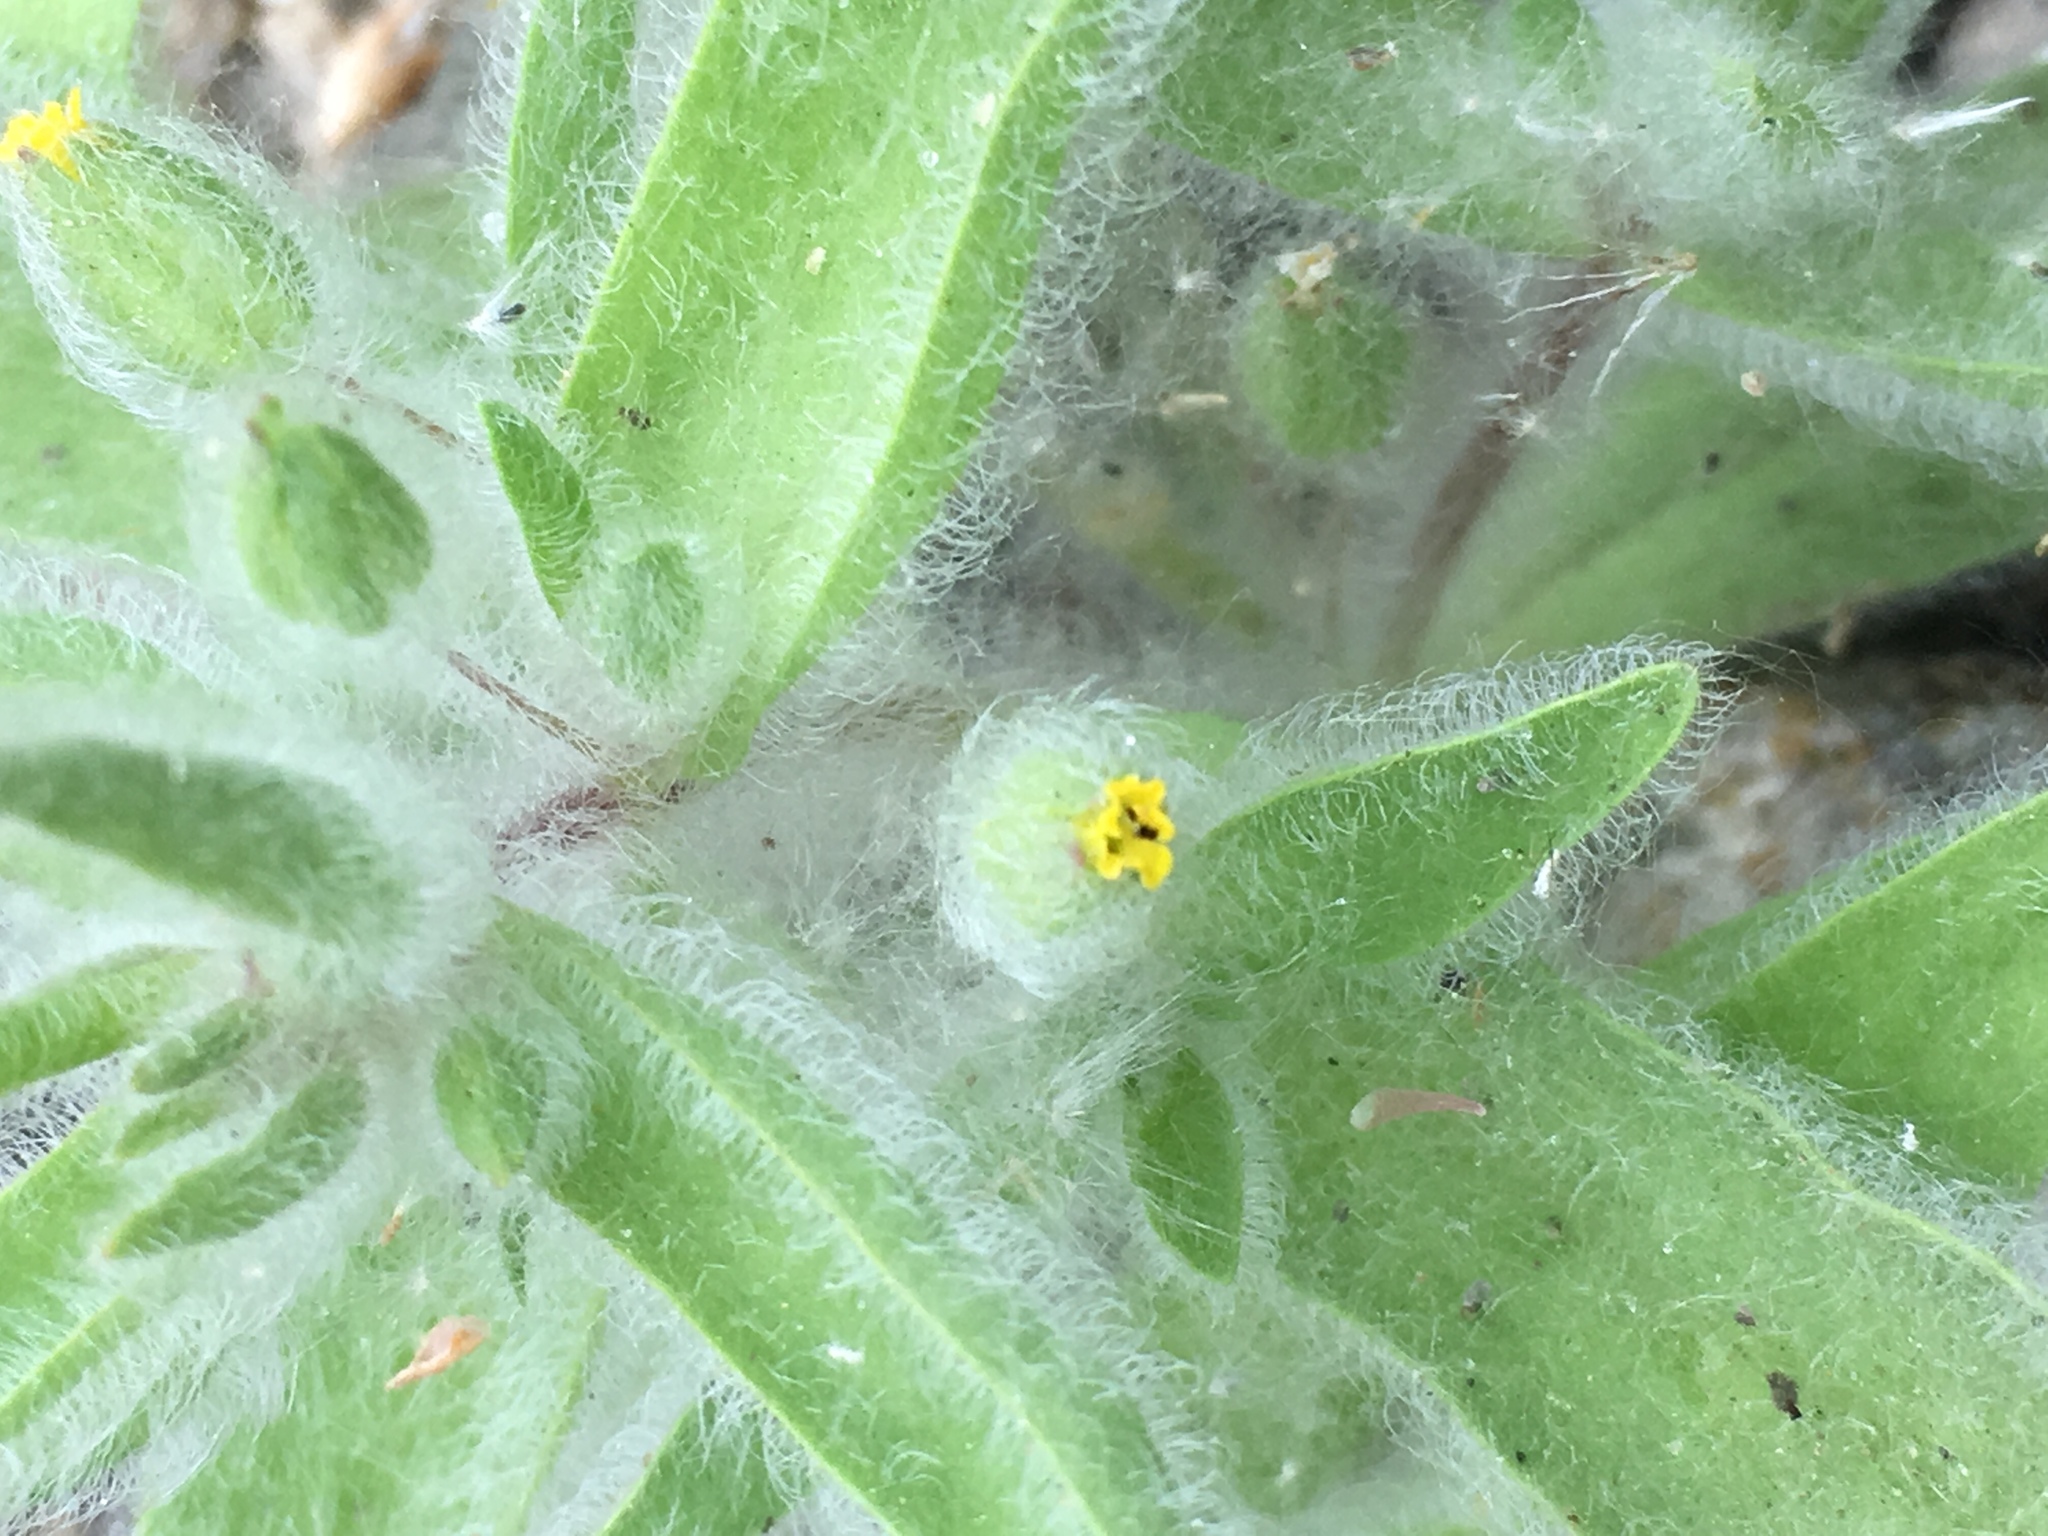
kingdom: Plantae
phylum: Tracheophyta
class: Magnoliopsida
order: Lamiales
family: Phrymaceae
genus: Mimetanthe
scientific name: Mimetanthe pilosa
